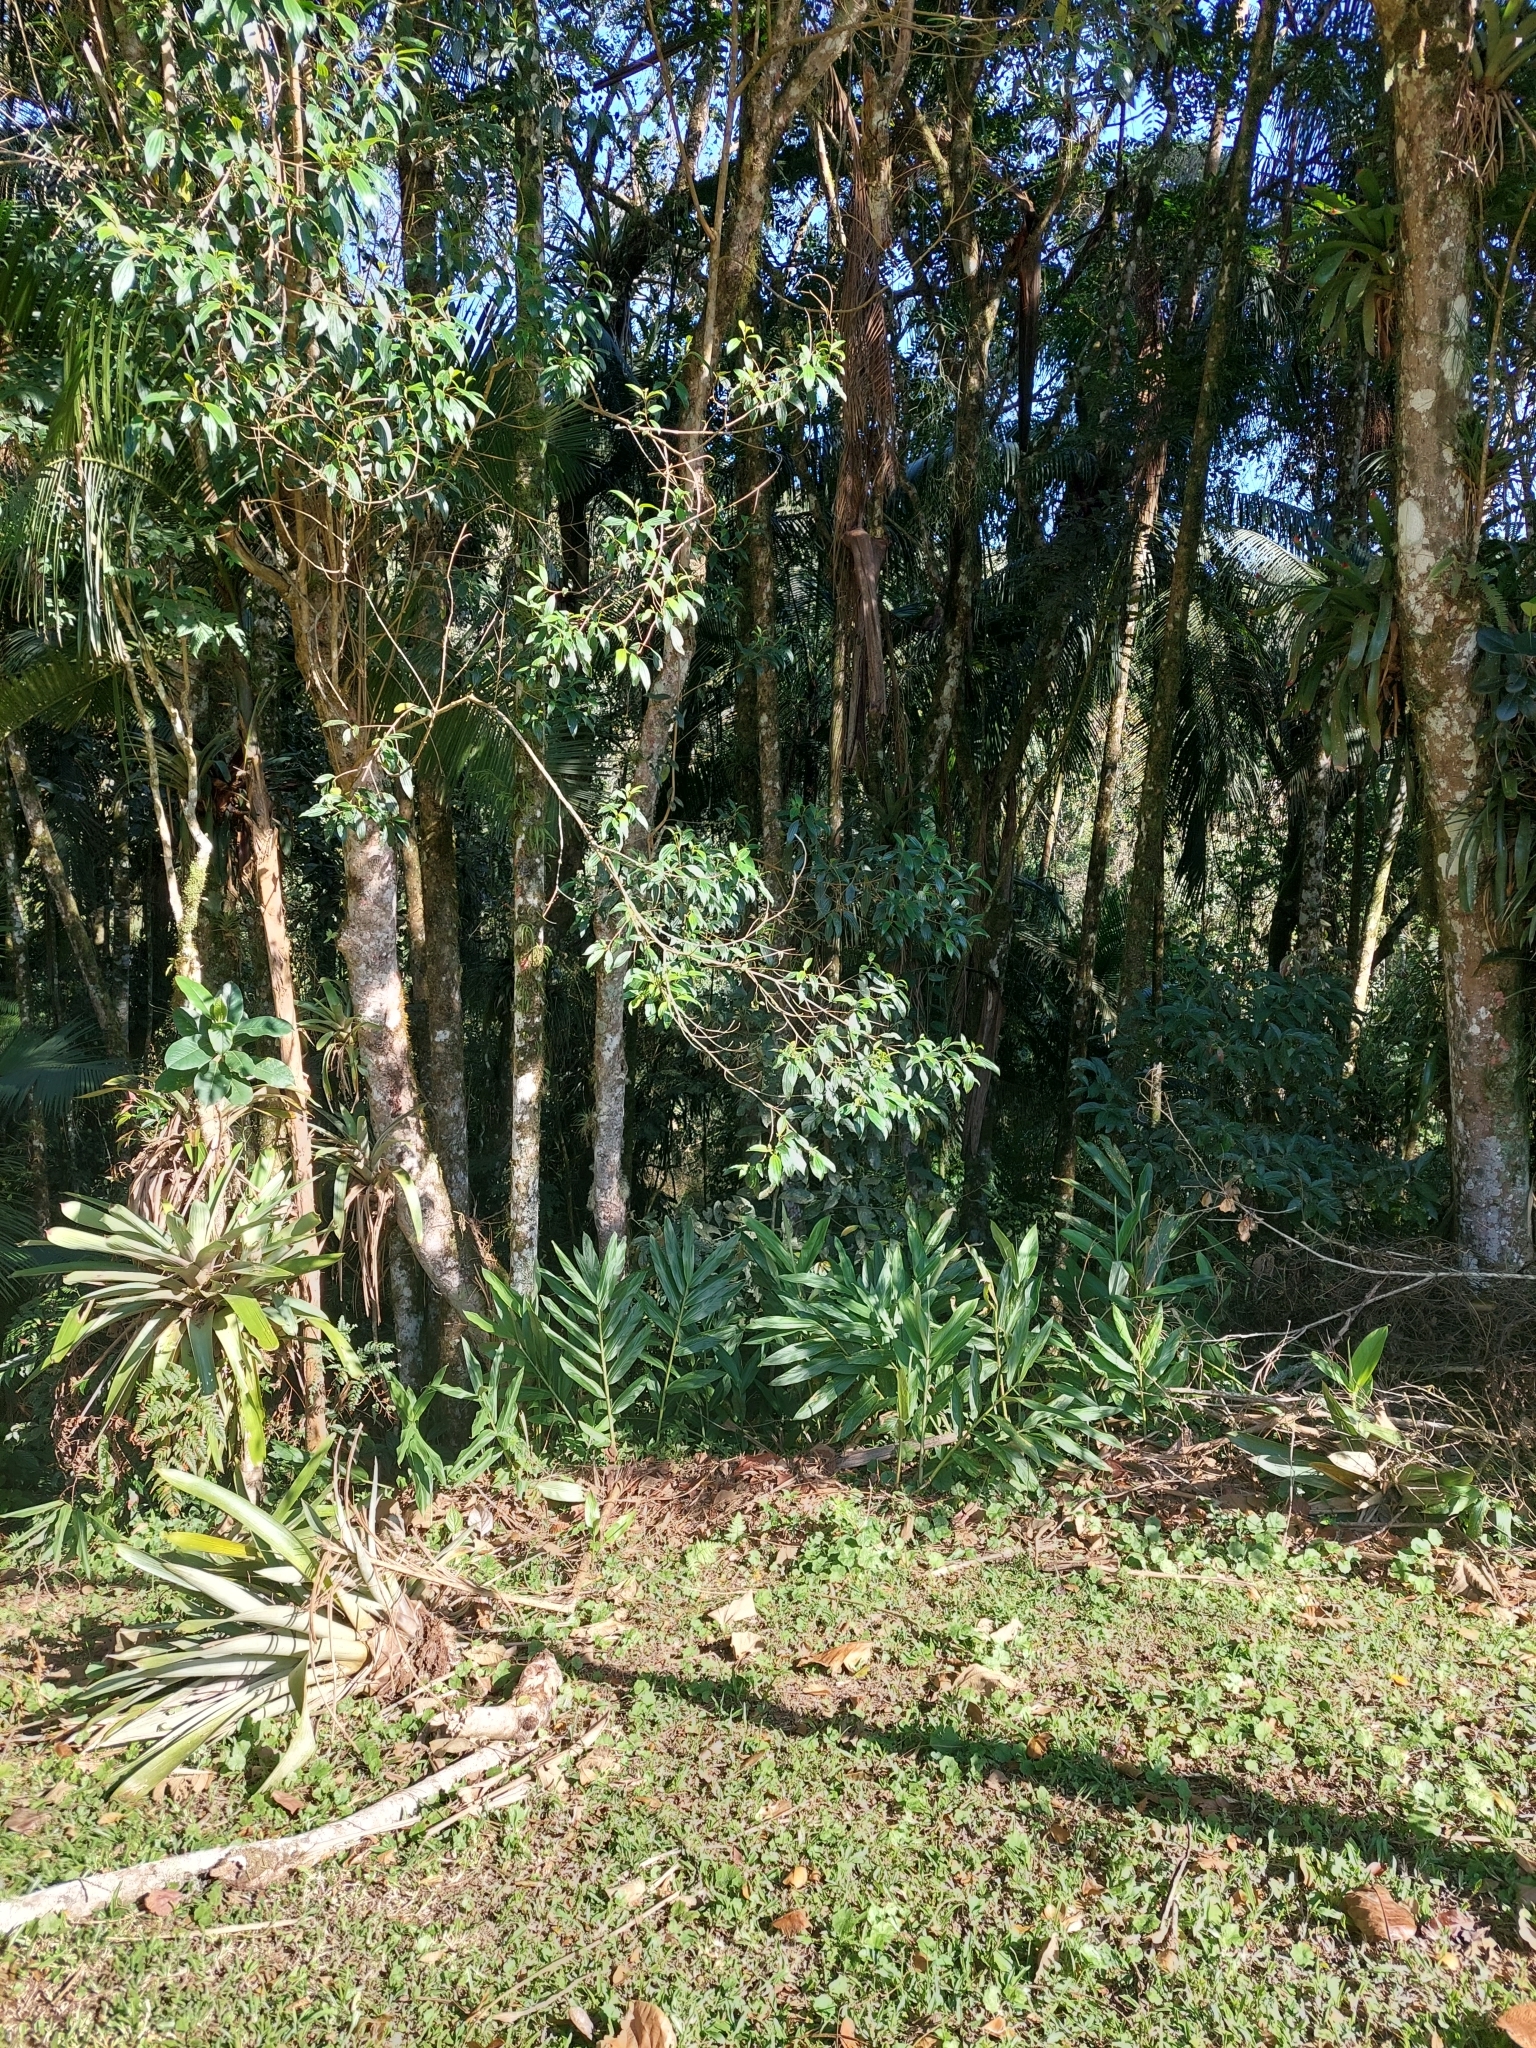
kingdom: Plantae
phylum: Tracheophyta
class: Liliopsida
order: Zingiberales
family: Zingiberaceae
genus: Hedychium
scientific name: Hedychium coronarium
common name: White garland-lily
